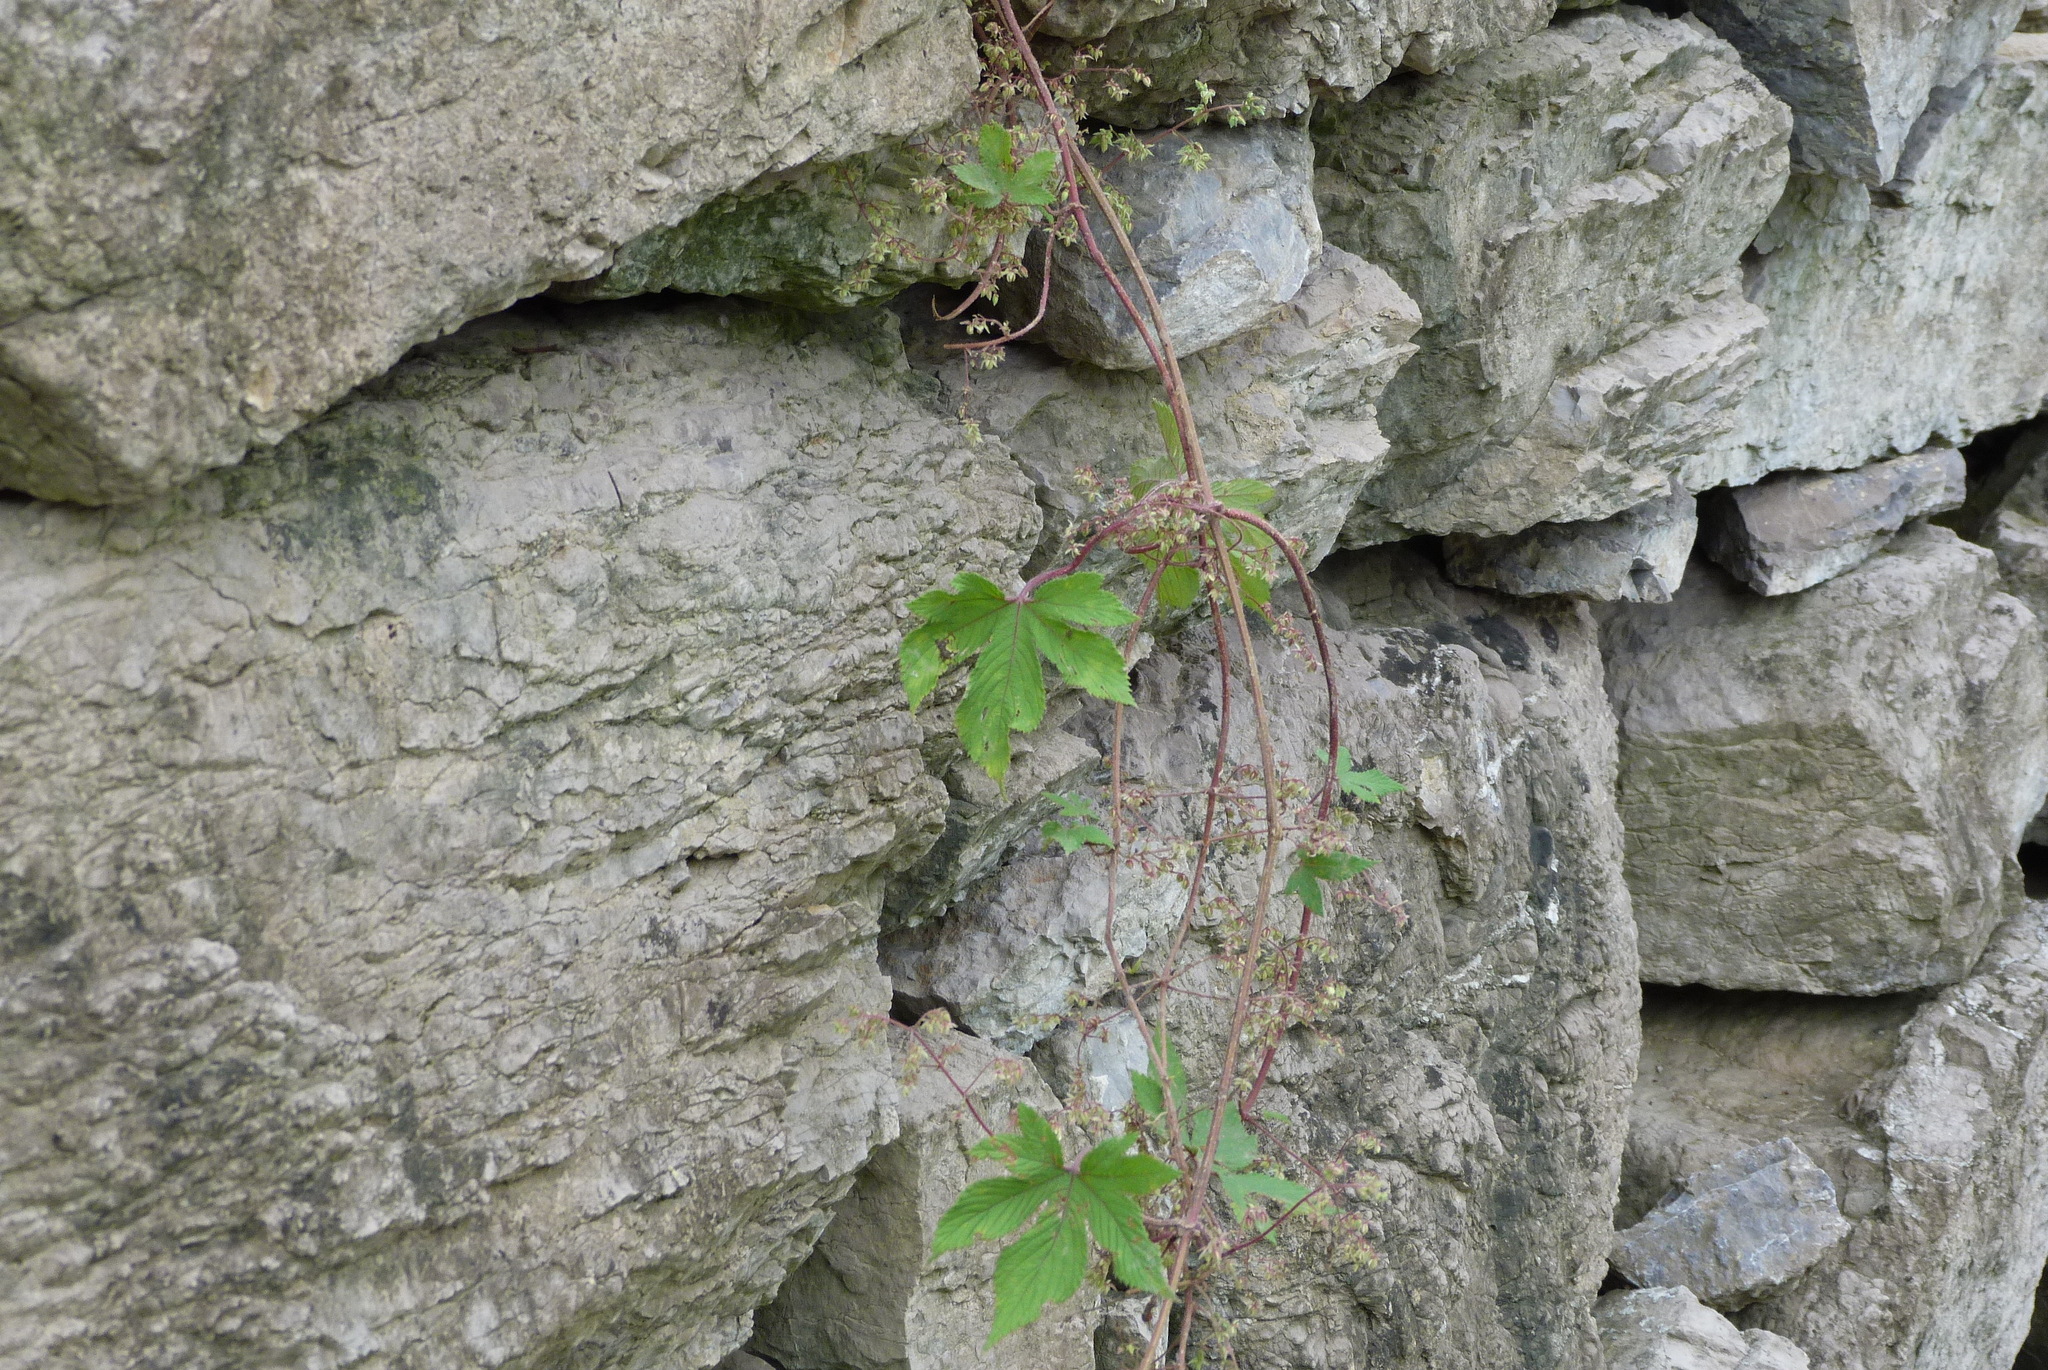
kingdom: Plantae
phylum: Tracheophyta
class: Magnoliopsida
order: Rosales
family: Cannabaceae
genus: Humulus
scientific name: Humulus scandens
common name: Japanese hop
